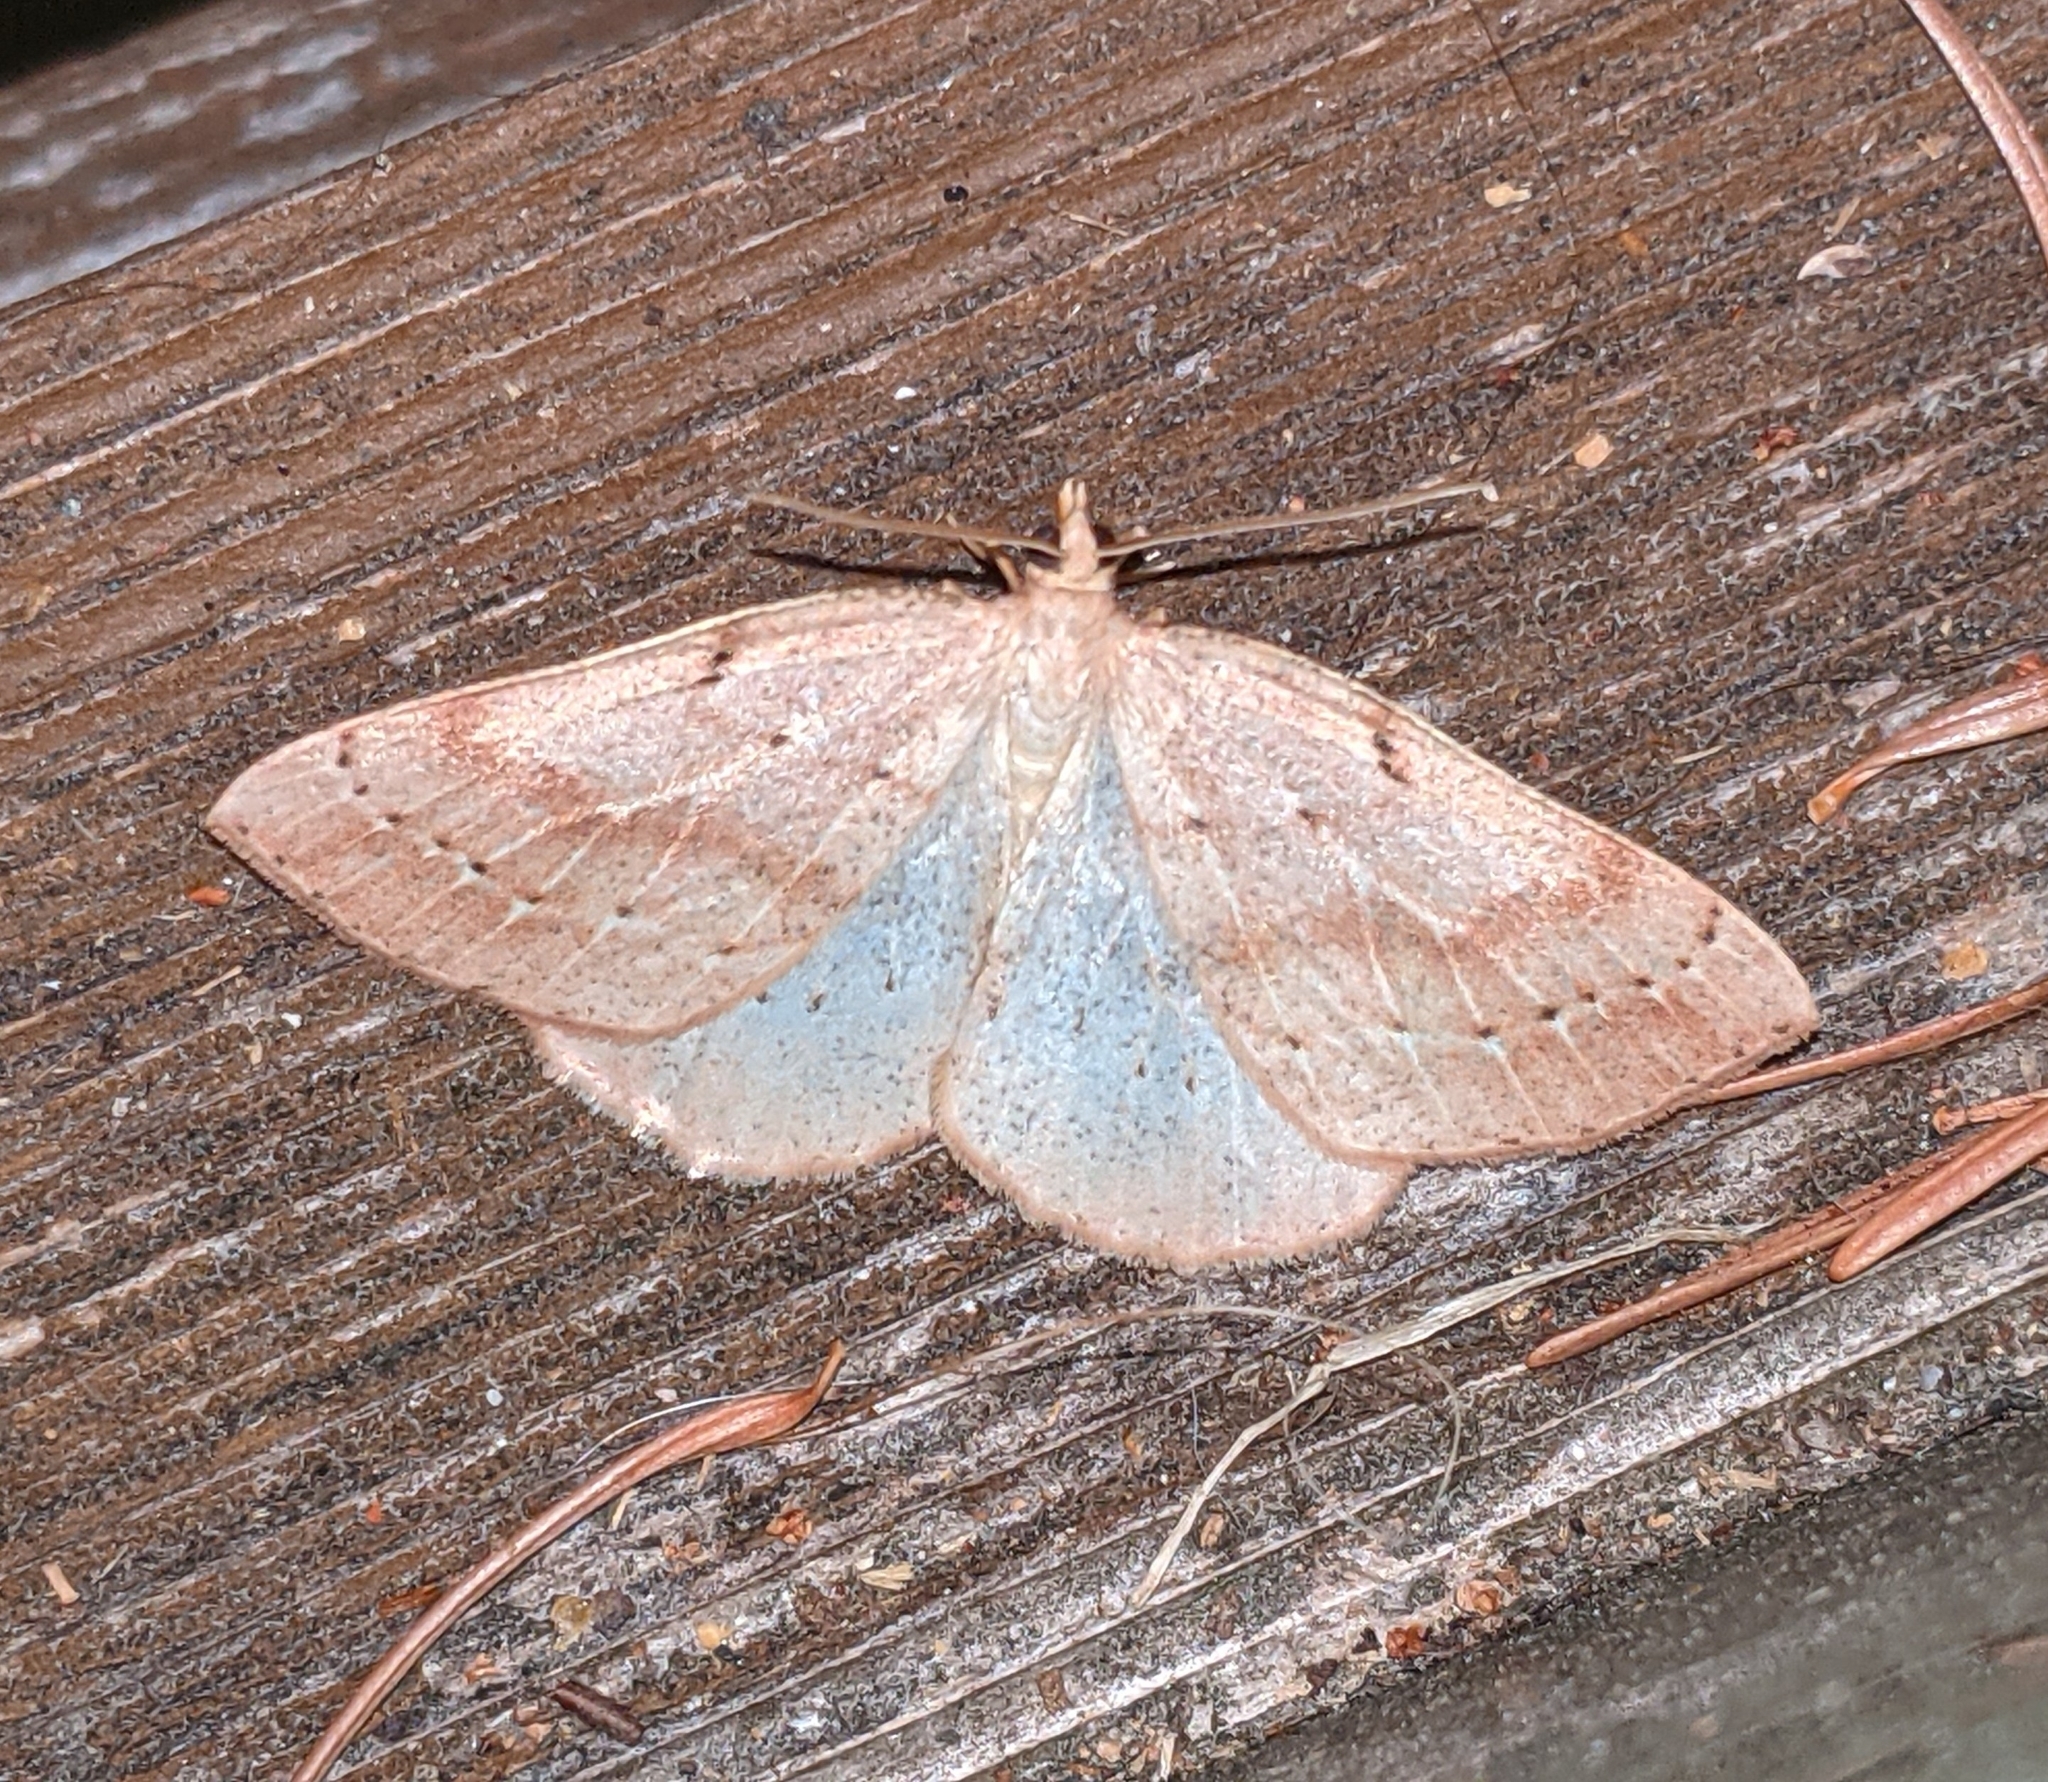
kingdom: Animalia
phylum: Arthropoda
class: Insecta
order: Lepidoptera
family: Geometridae
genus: Thallophaga
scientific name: Thallophaga hyperborea
